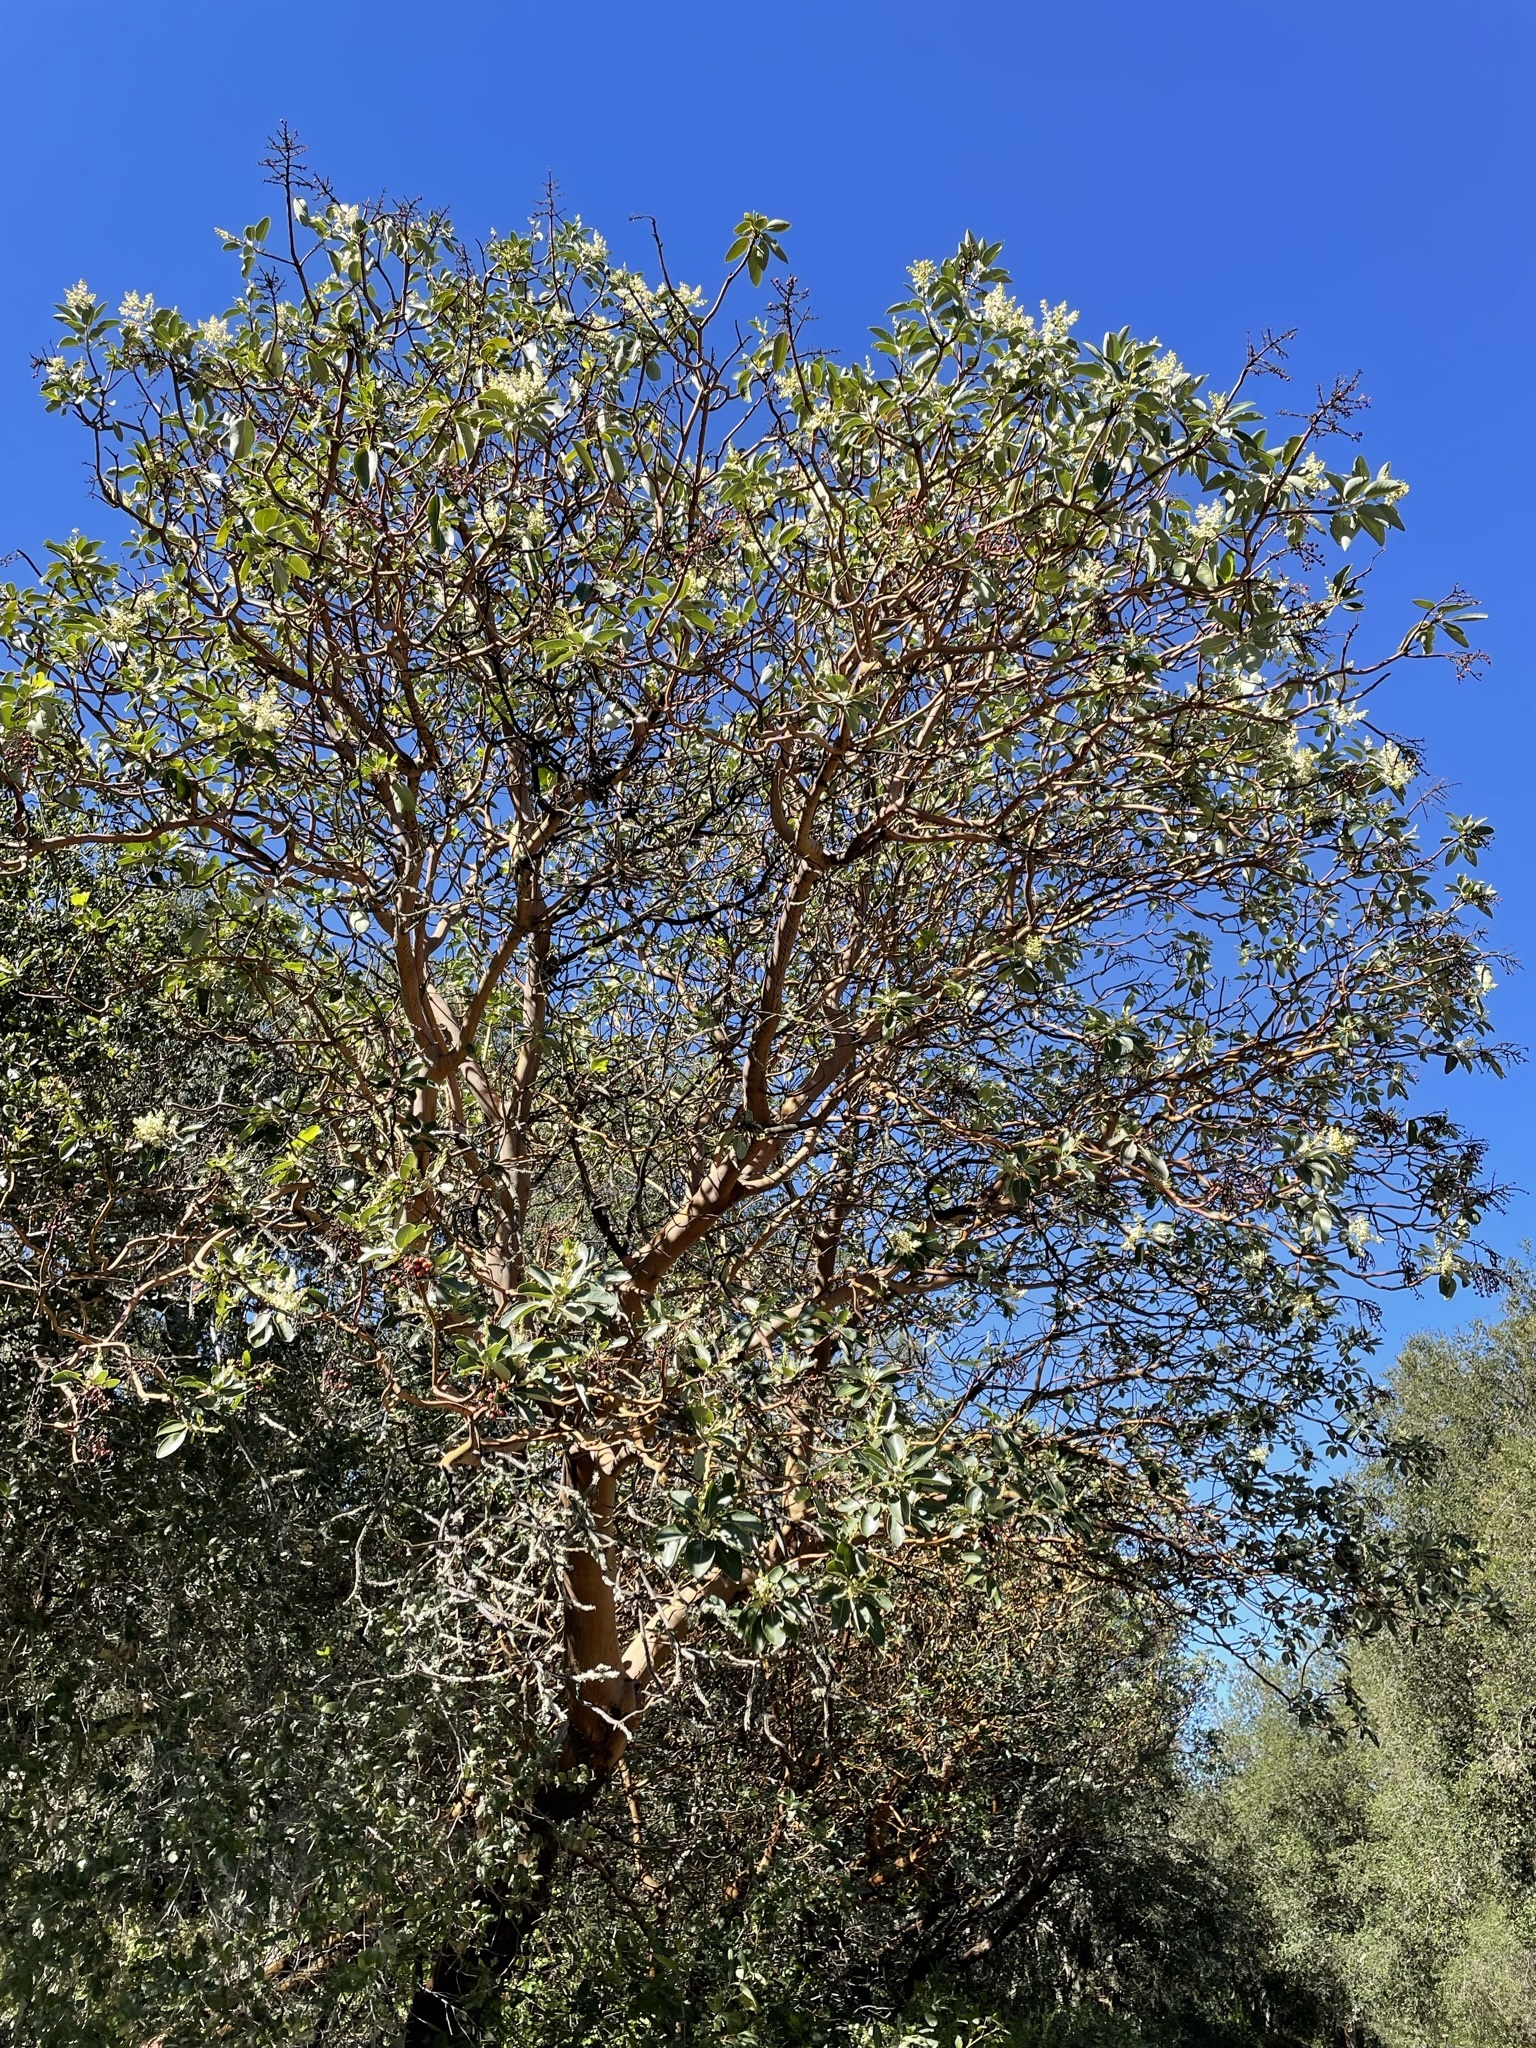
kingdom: Plantae
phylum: Tracheophyta
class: Magnoliopsida
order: Ericales
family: Ericaceae
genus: Arbutus
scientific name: Arbutus menziesii
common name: Pacific madrone
